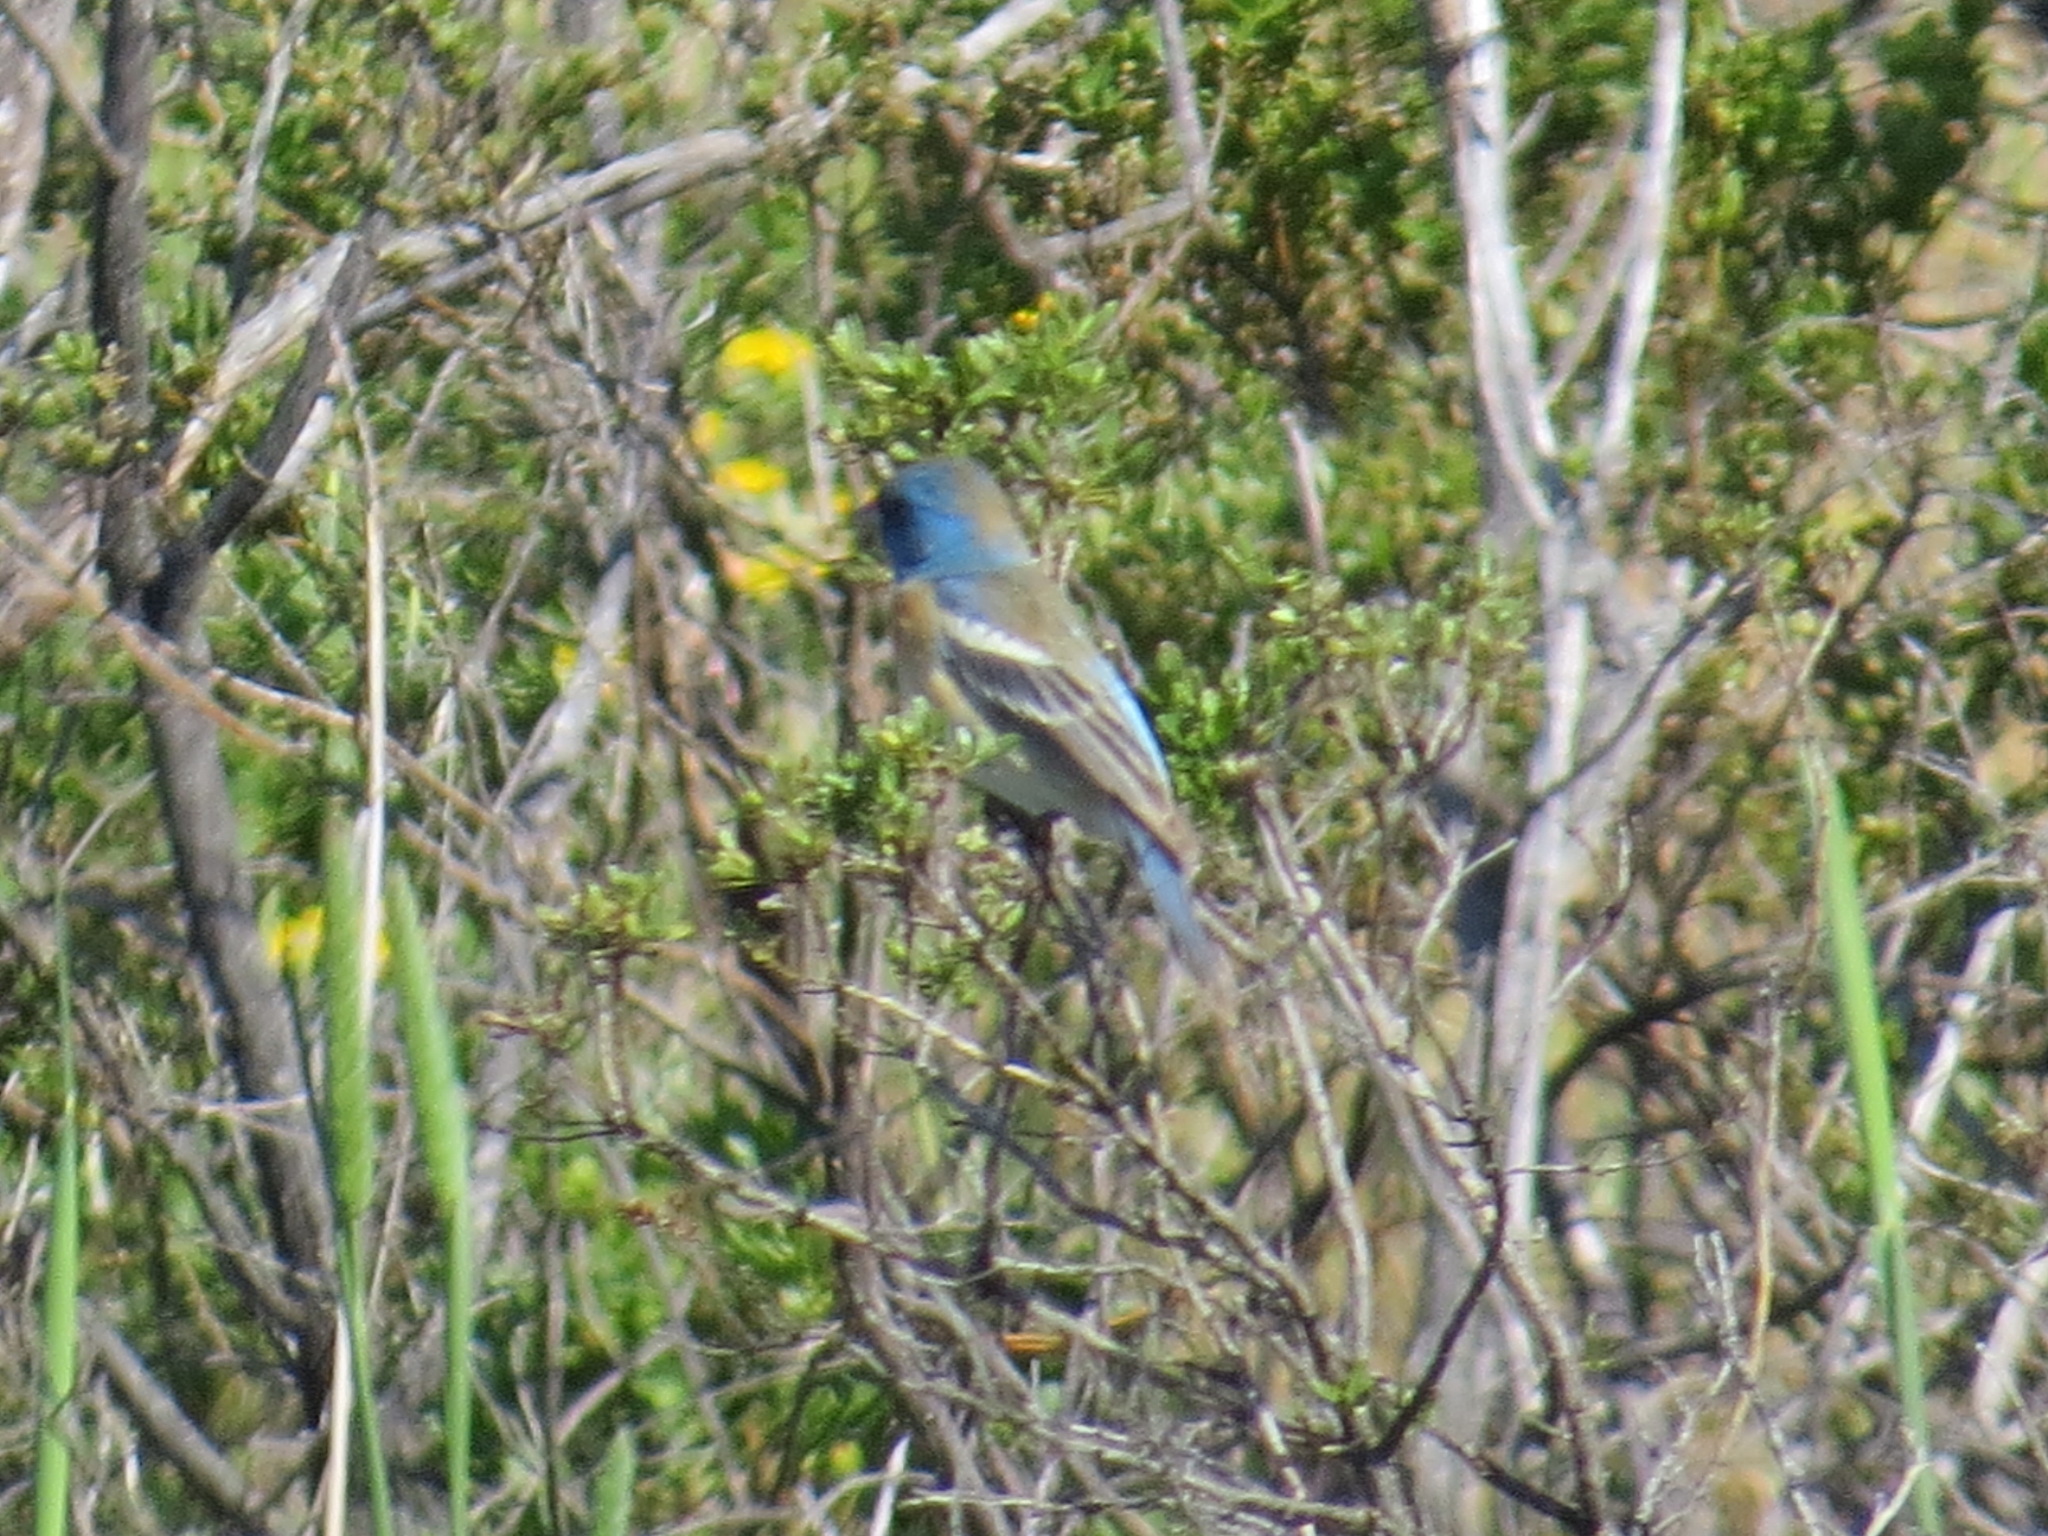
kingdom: Animalia
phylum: Chordata
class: Aves
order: Passeriformes
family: Cardinalidae
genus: Passerina
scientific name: Passerina amoena
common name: Lazuli bunting
